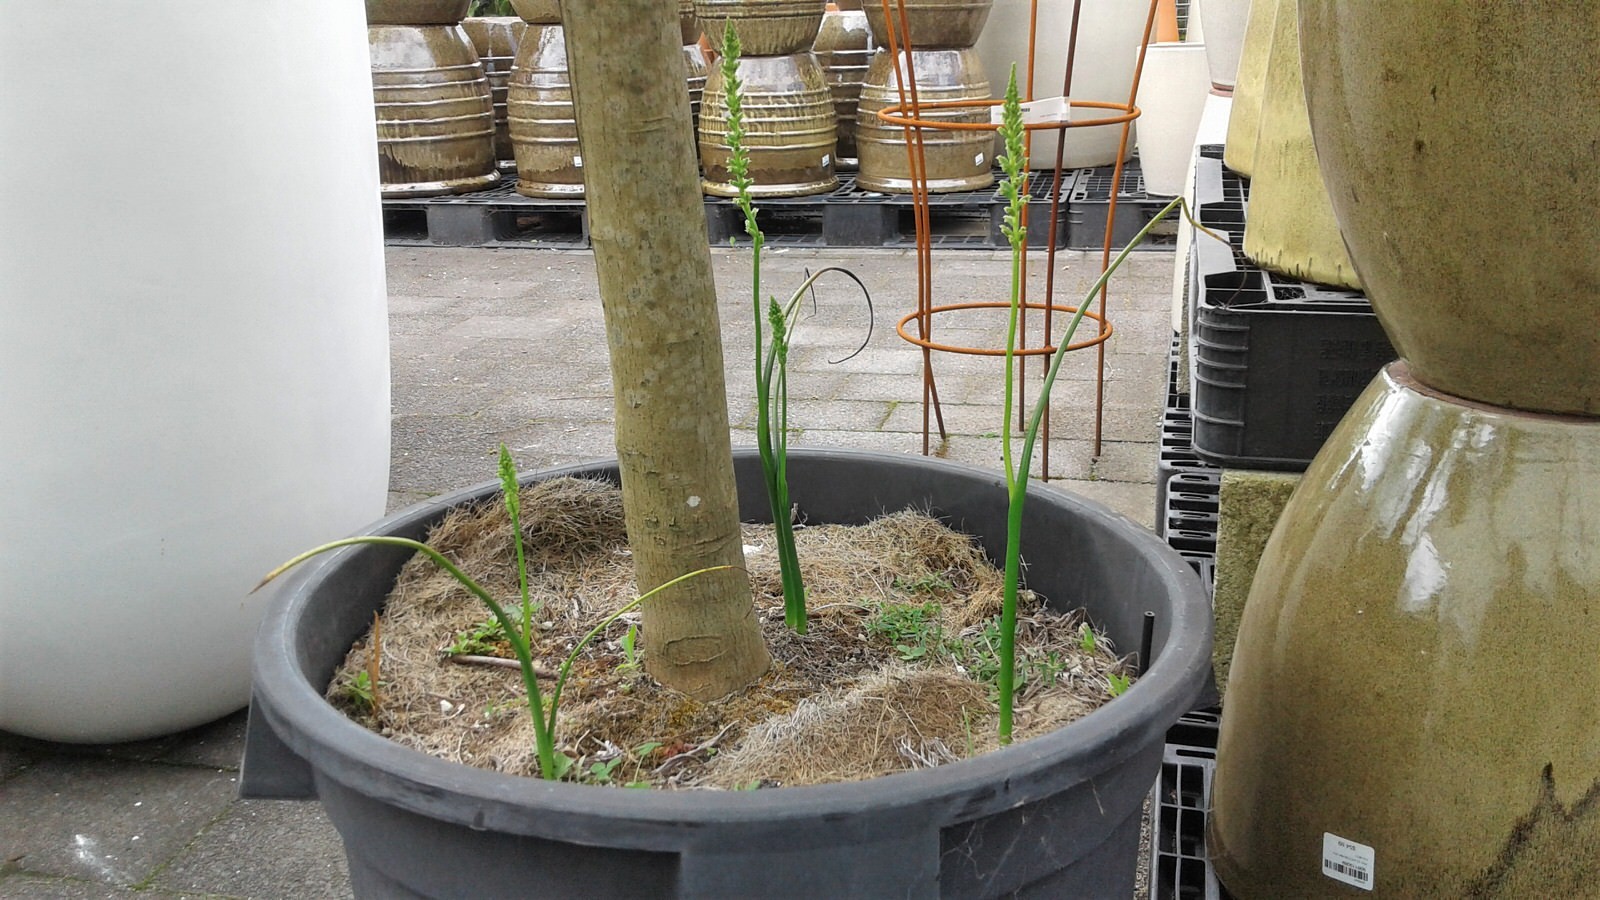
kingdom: Plantae
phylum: Tracheophyta
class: Liliopsida
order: Asparagales
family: Orchidaceae
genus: Microtis
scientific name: Microtis unifolia
